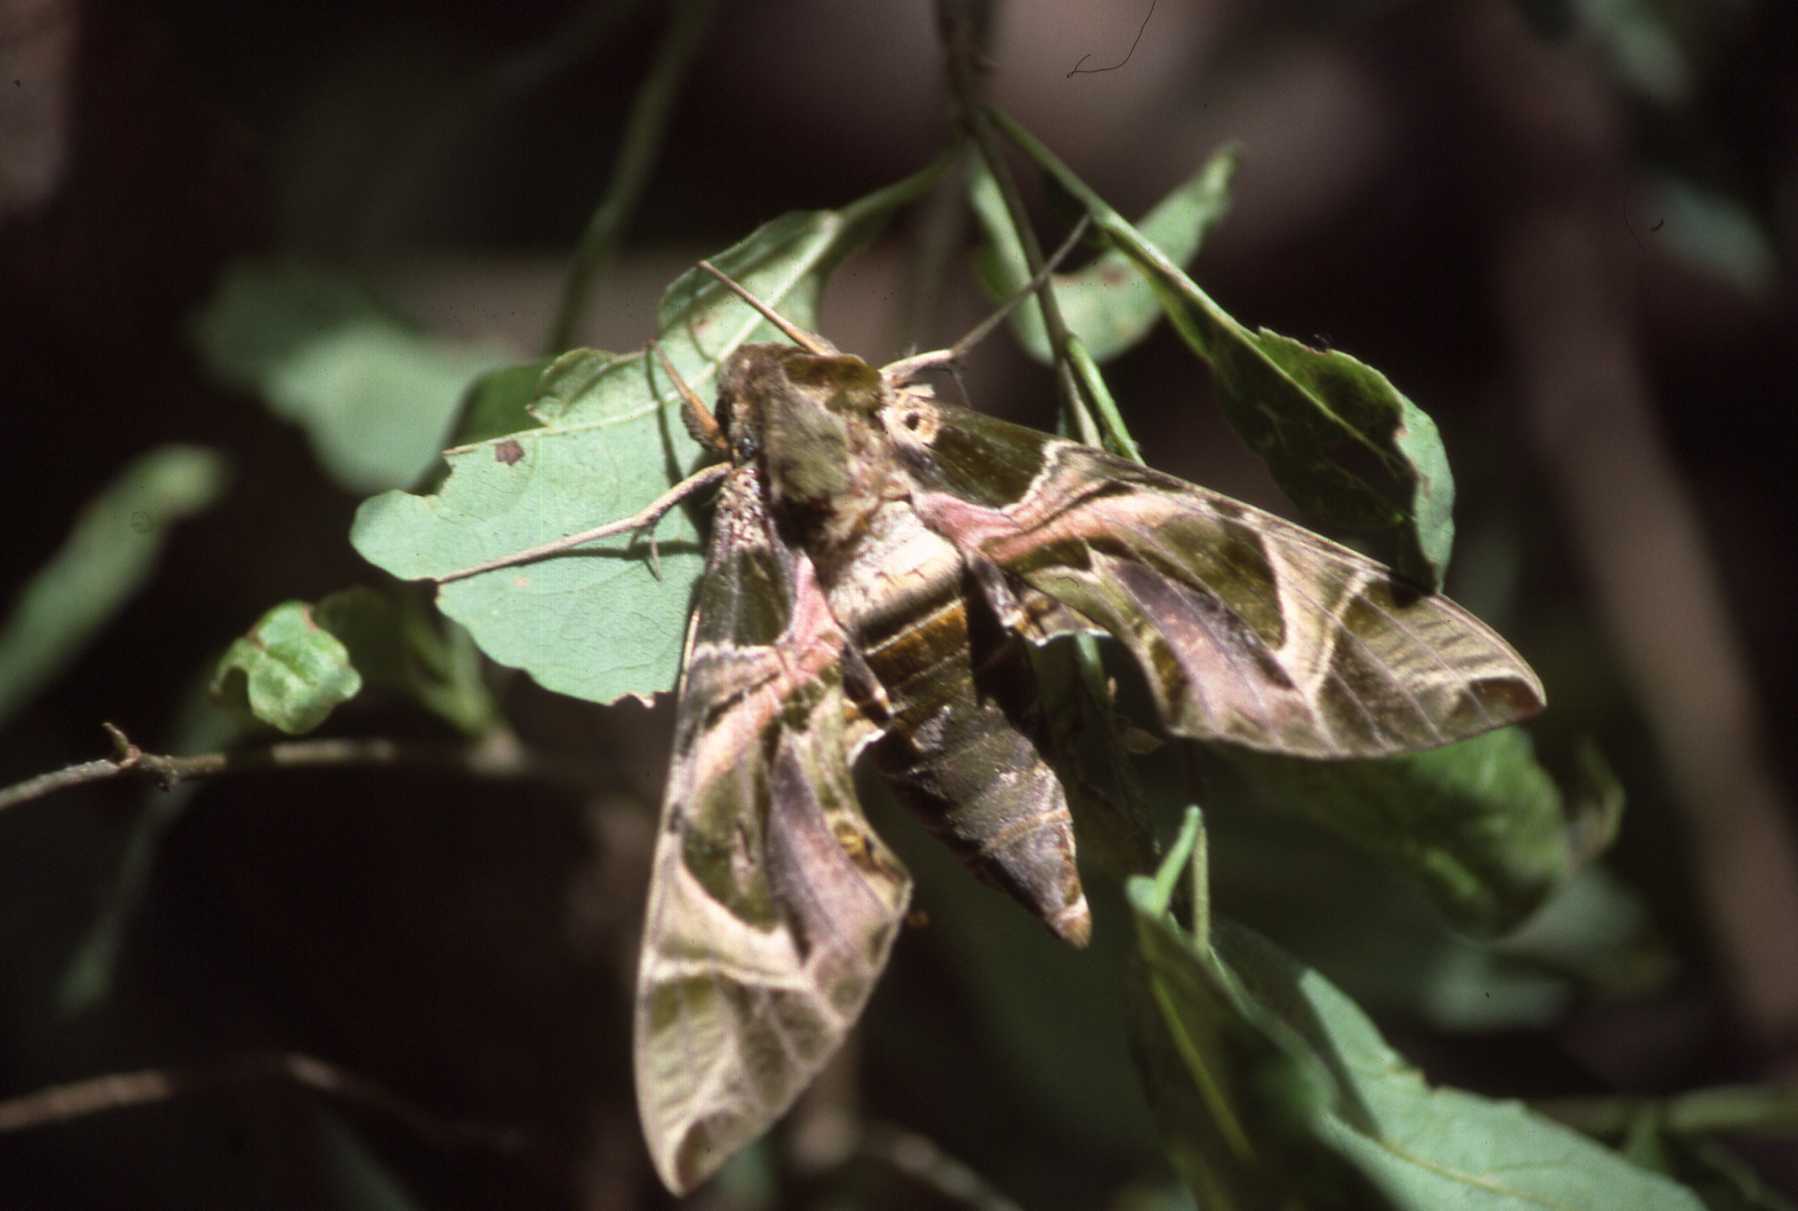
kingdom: Animalia
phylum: Arthropoda
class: Insecta
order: Lepidoptera
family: Sphingidae
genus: Daphnis
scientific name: Daphnis nerii
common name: Oleander hawk-moth
